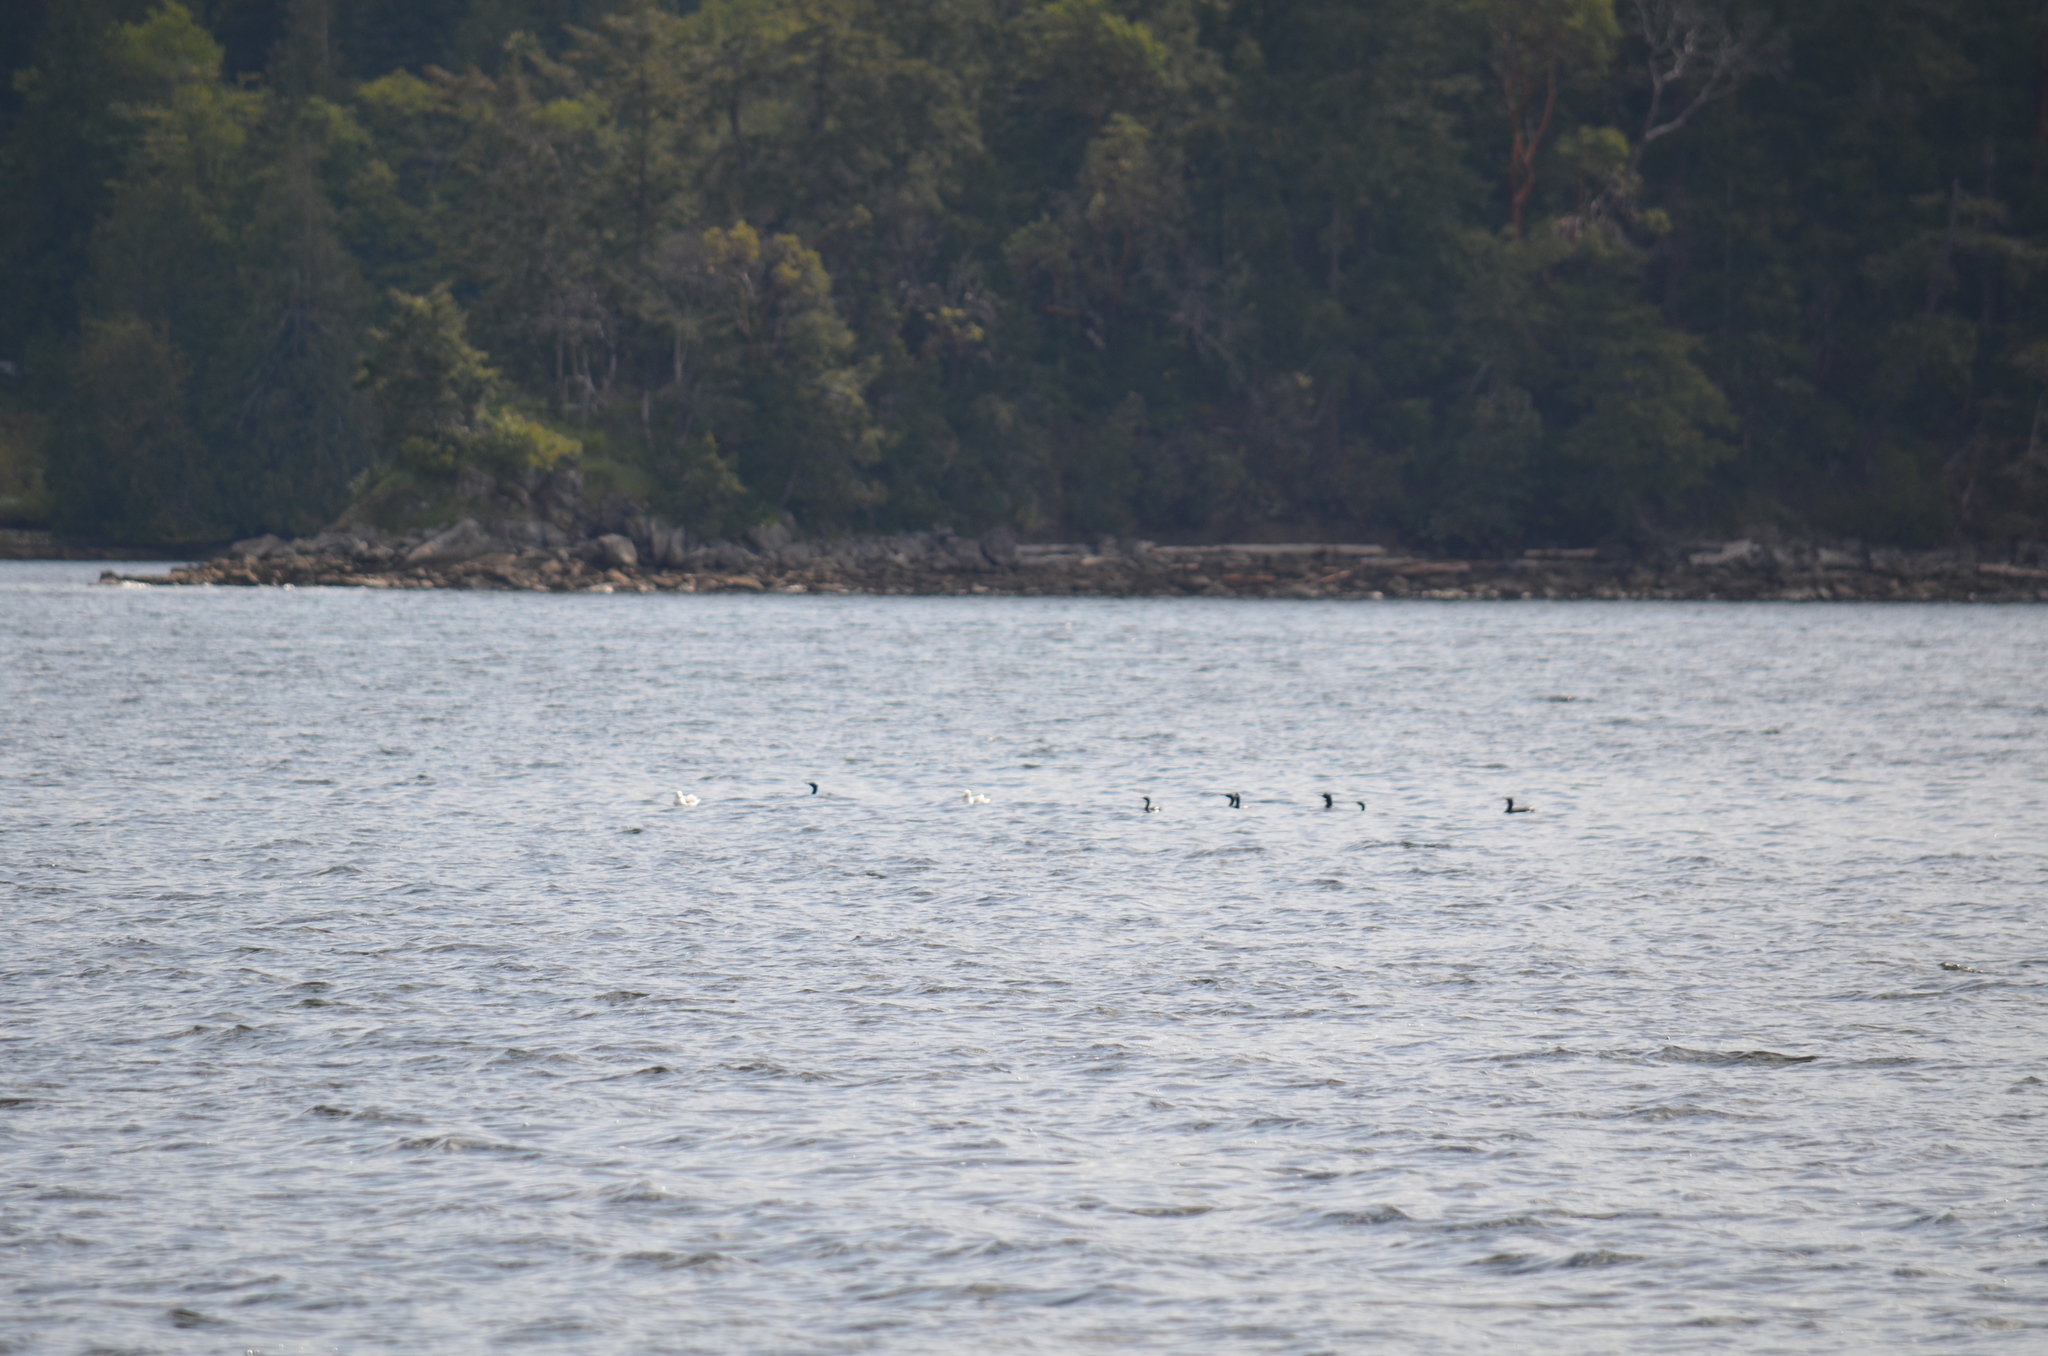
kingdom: Animalia
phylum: Chordata
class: Aves
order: Suliformes
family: Phalacrocoracidae
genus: Phalacrocorax
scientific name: Phalacrocorax pelagicus
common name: Pelagic cormorant
